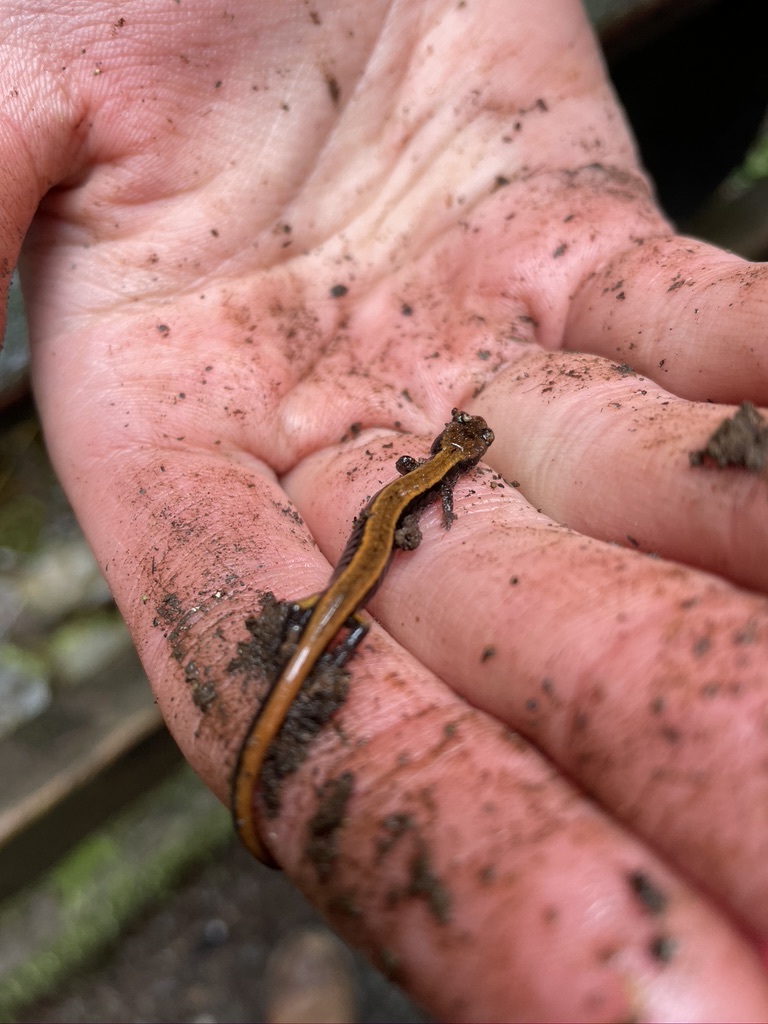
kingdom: Animalia
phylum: Chordata
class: Amphibia
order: Caudata
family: Plethodontidae
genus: Plethodon
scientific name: Plethodon vehiculum
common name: Western red-backed salamander
